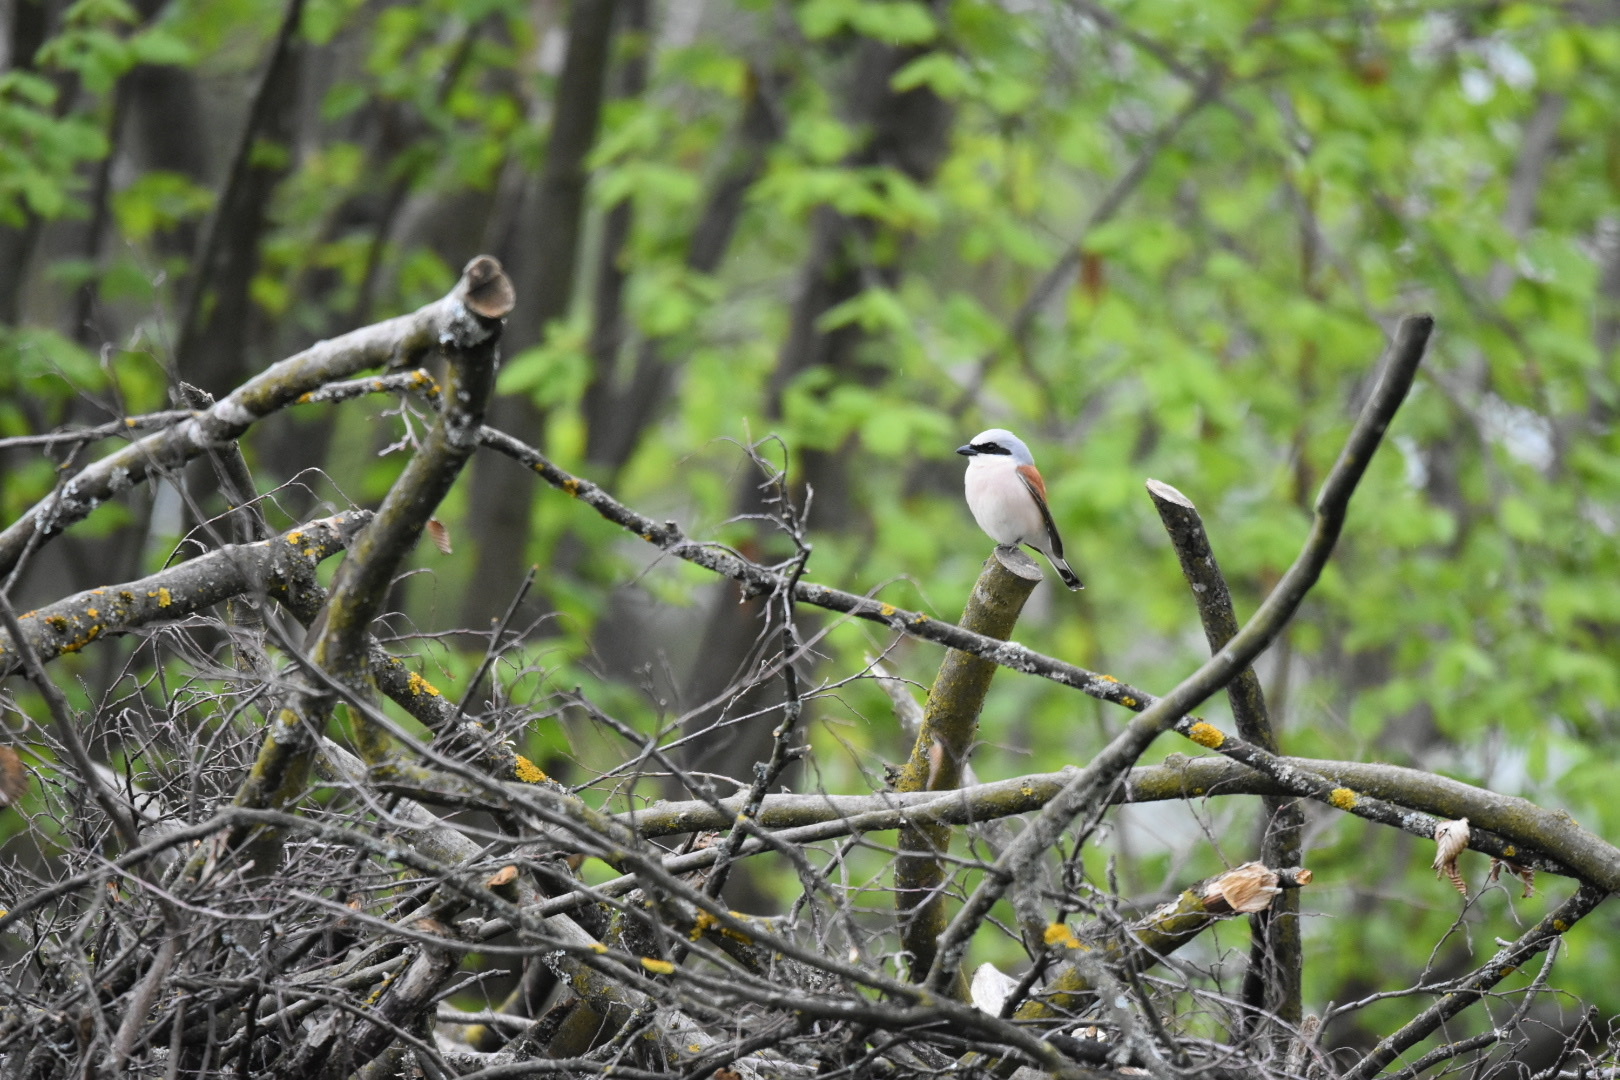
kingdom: Animalia
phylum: Chordata
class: Aves
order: Passeriformes
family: Laniidae
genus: Lanius
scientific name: Lanius collurio
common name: Red-backed shrike
